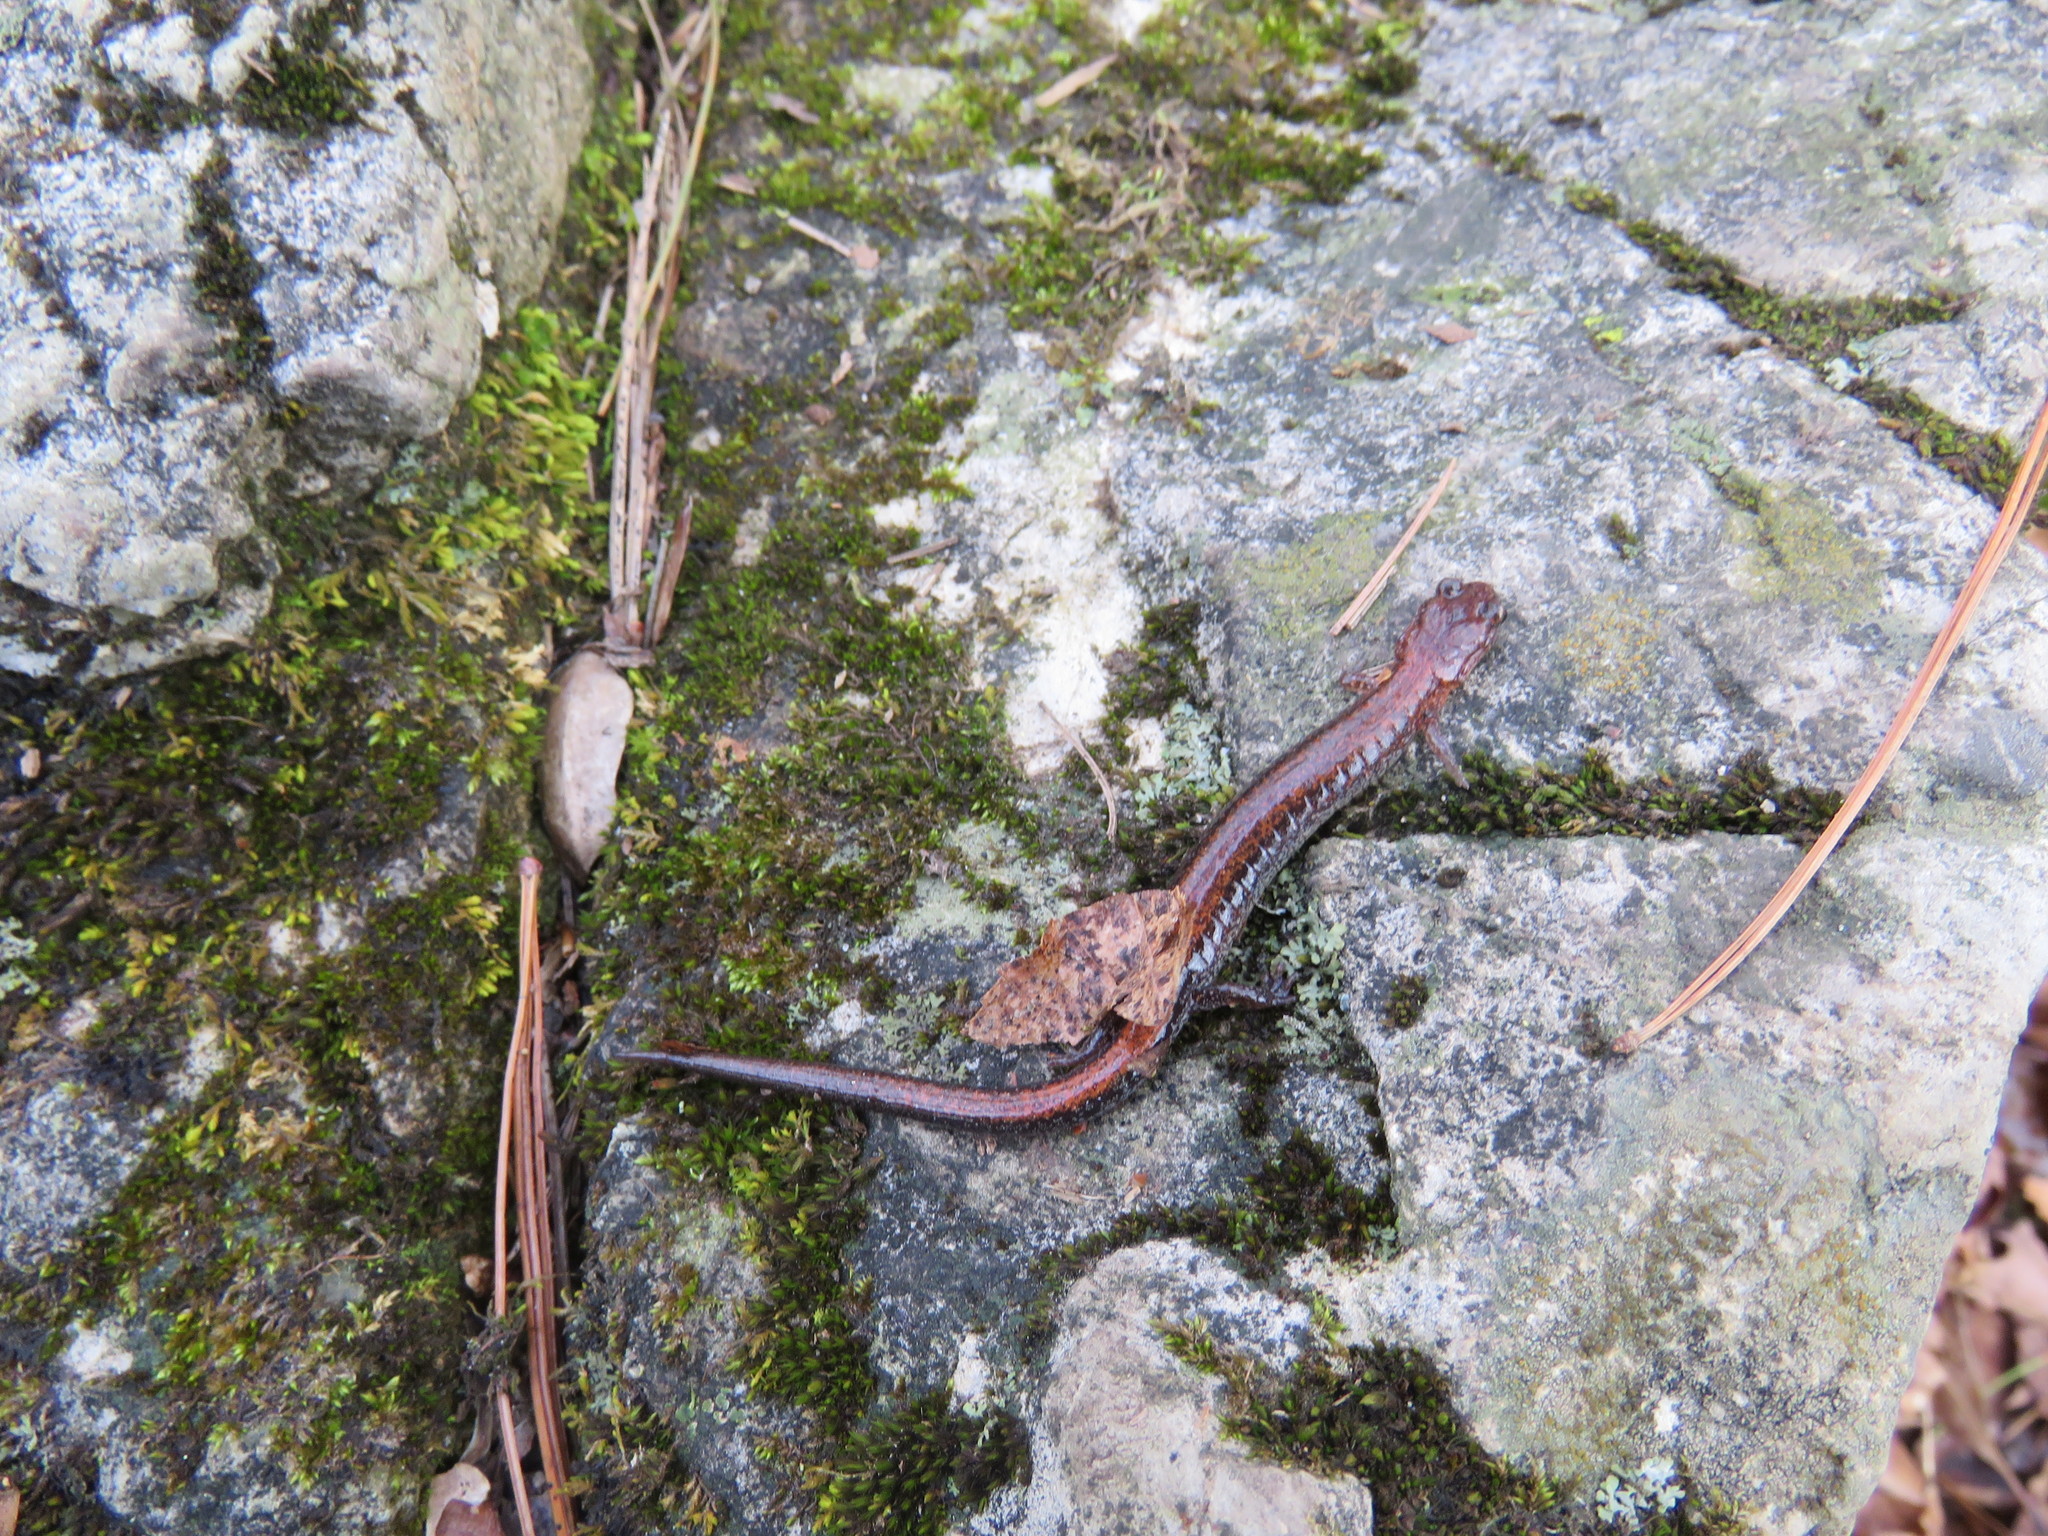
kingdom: Animalia
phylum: Chordata
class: Amphibia
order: Caudata
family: Plethodontidae
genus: Plethodon
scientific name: Plethodon cinereus
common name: Redback salamander
